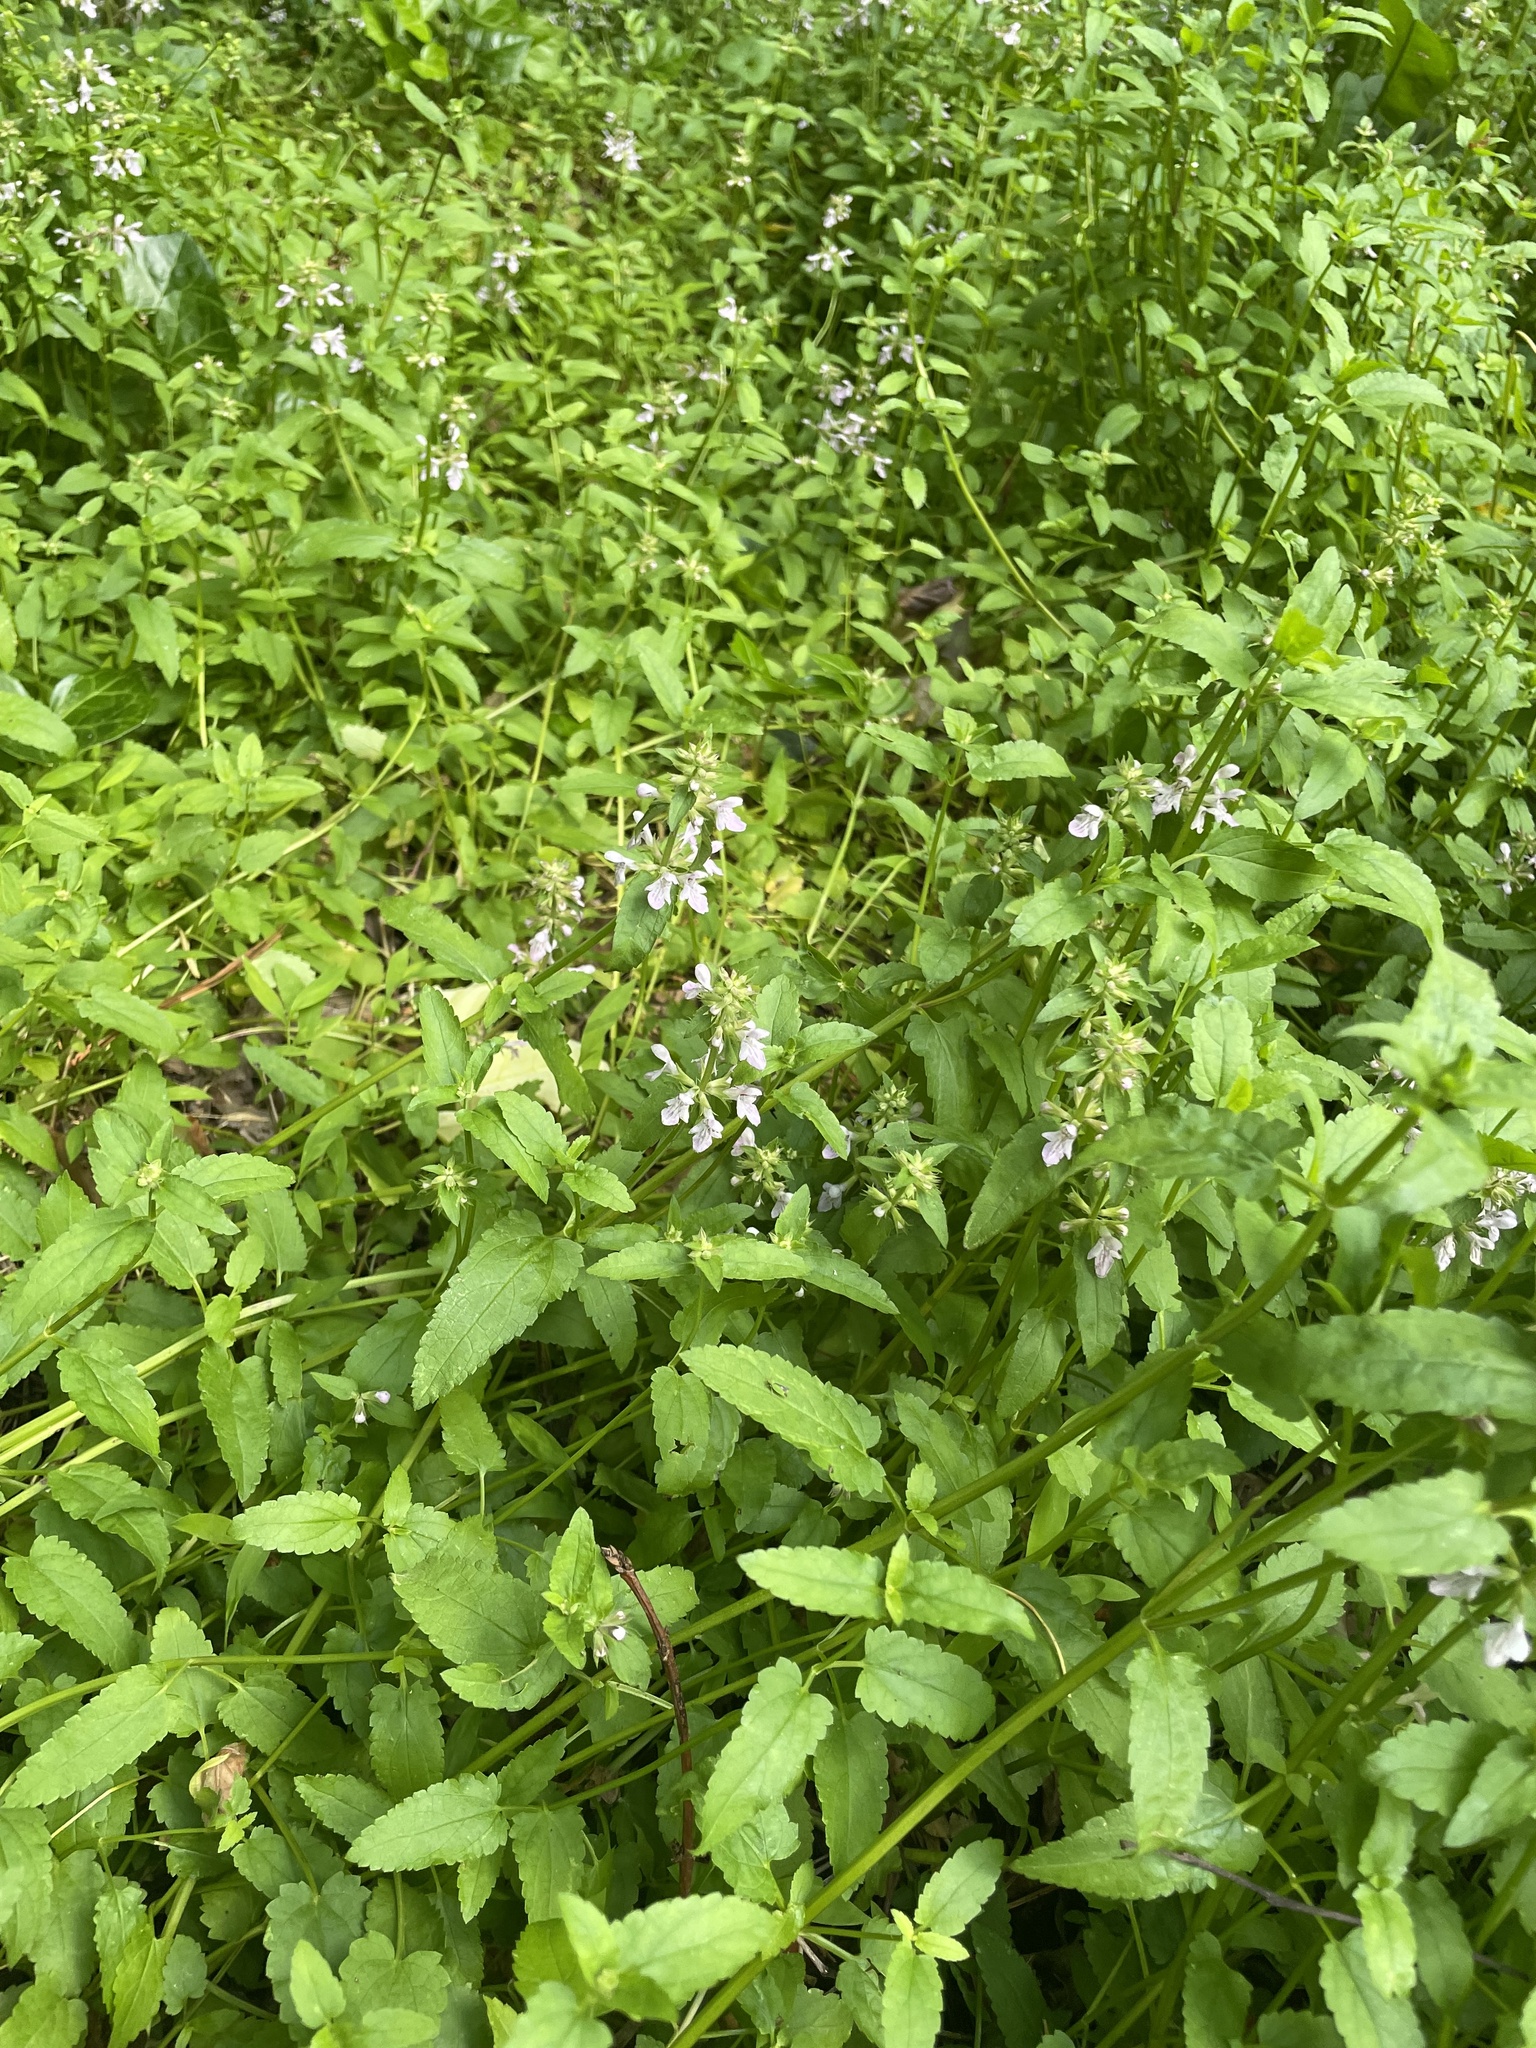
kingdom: Plantae
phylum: Tracheophyta
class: Magnoliopsida
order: Lamiales
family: Lamiaceae
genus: Stachys
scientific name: Stachys floridana
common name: Florida betony
